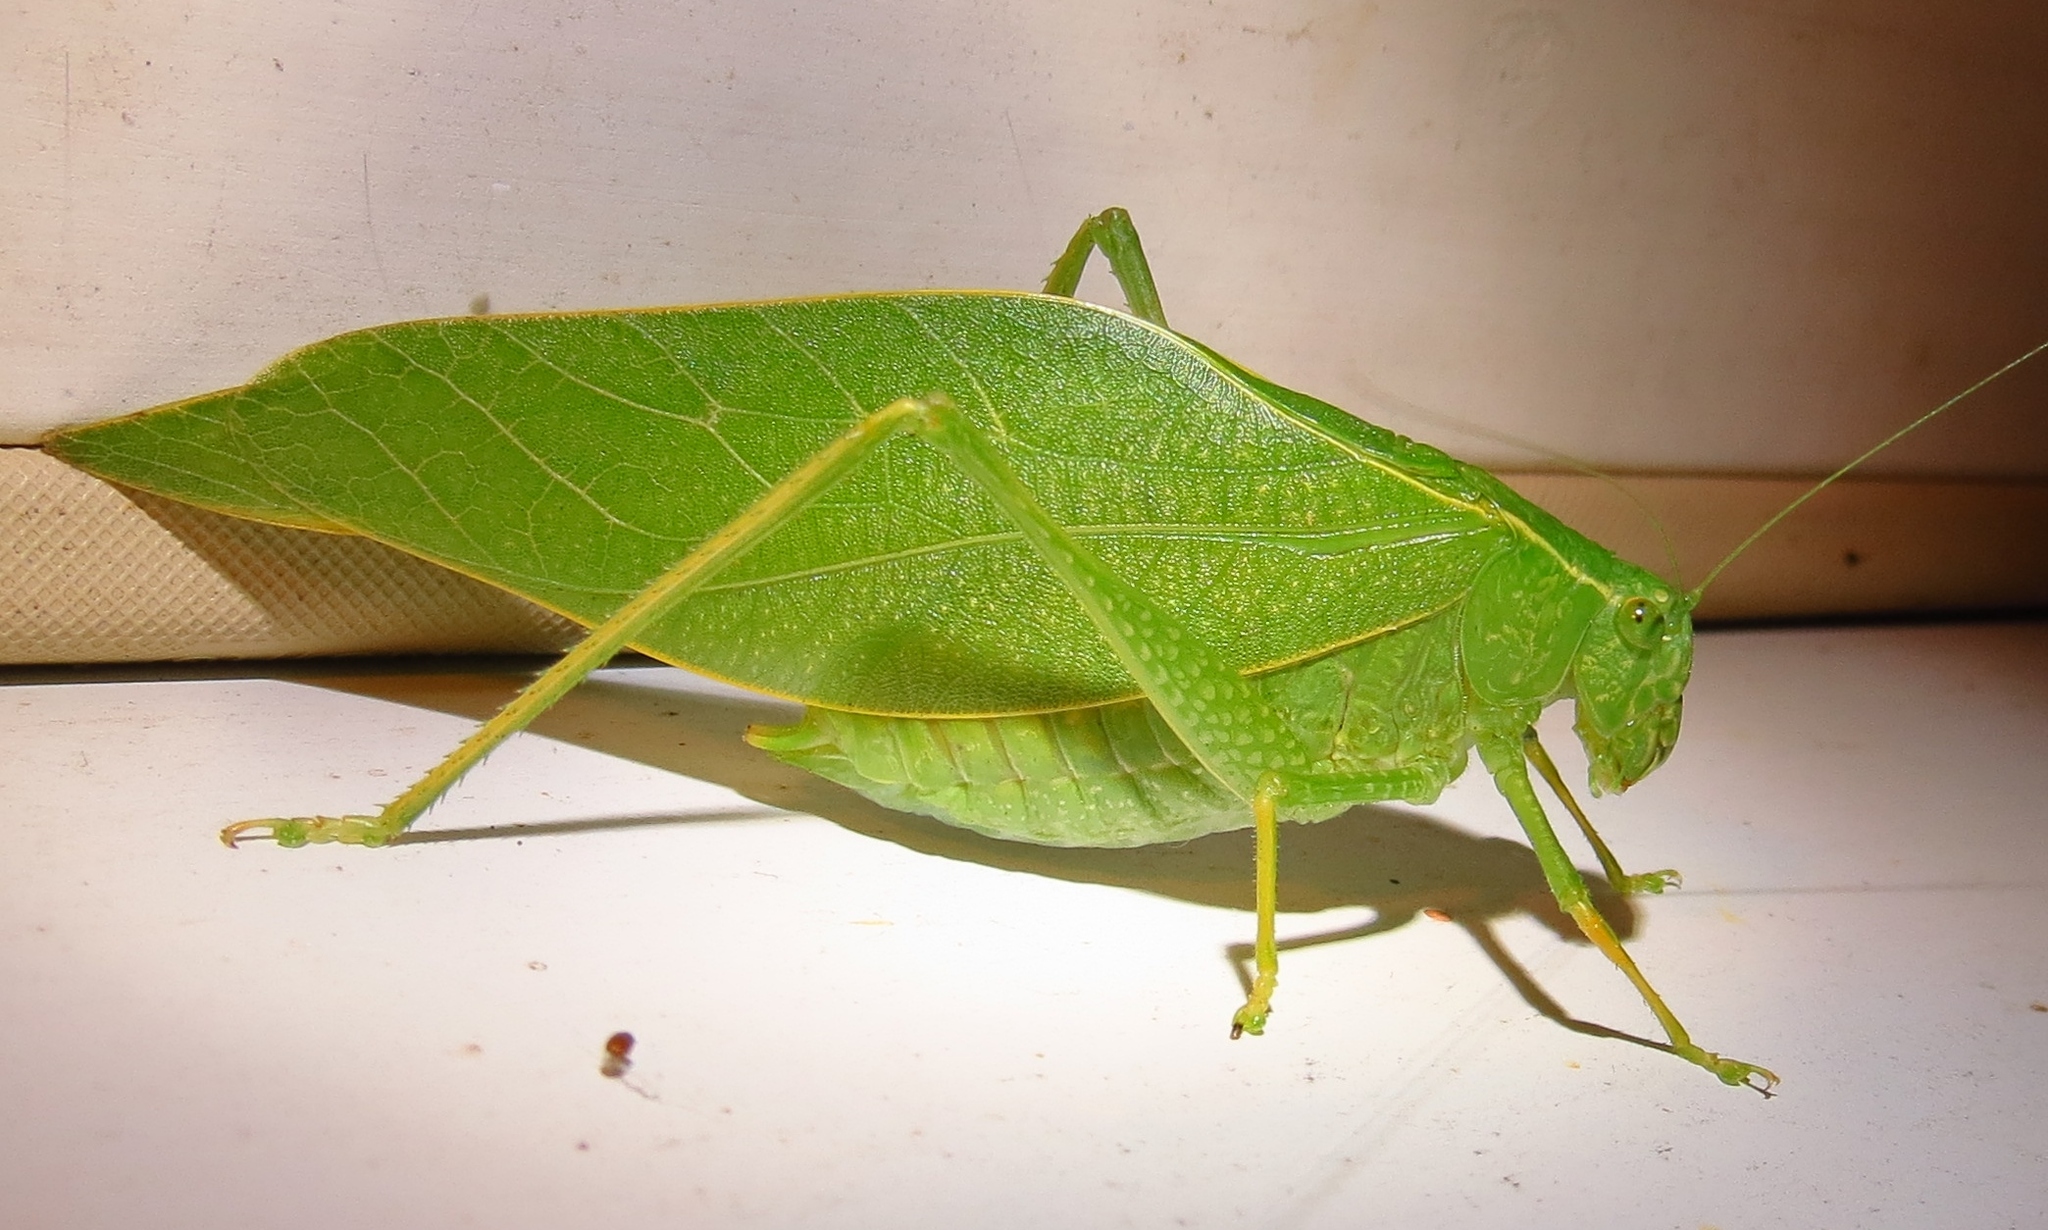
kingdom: Animalia
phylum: Arthropoda
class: Insecta
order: Orthoptera
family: Tettigoniidae
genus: Microcentrum
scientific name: Microcentrum rhombifolium
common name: Broad-winged katydid
